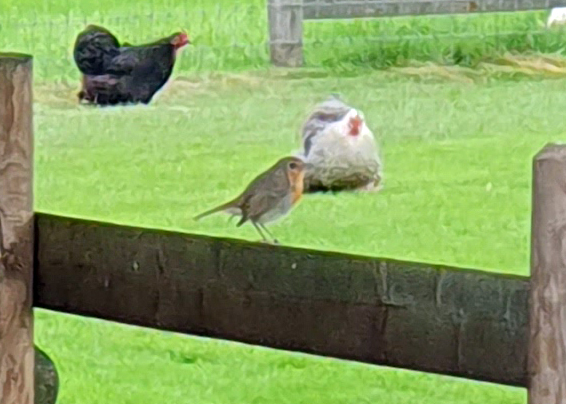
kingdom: Animalia
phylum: Chordata
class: Aves
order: Passeriformes
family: Muscicapidae
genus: Erithacus
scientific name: Erithacus rubecula
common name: European robin
